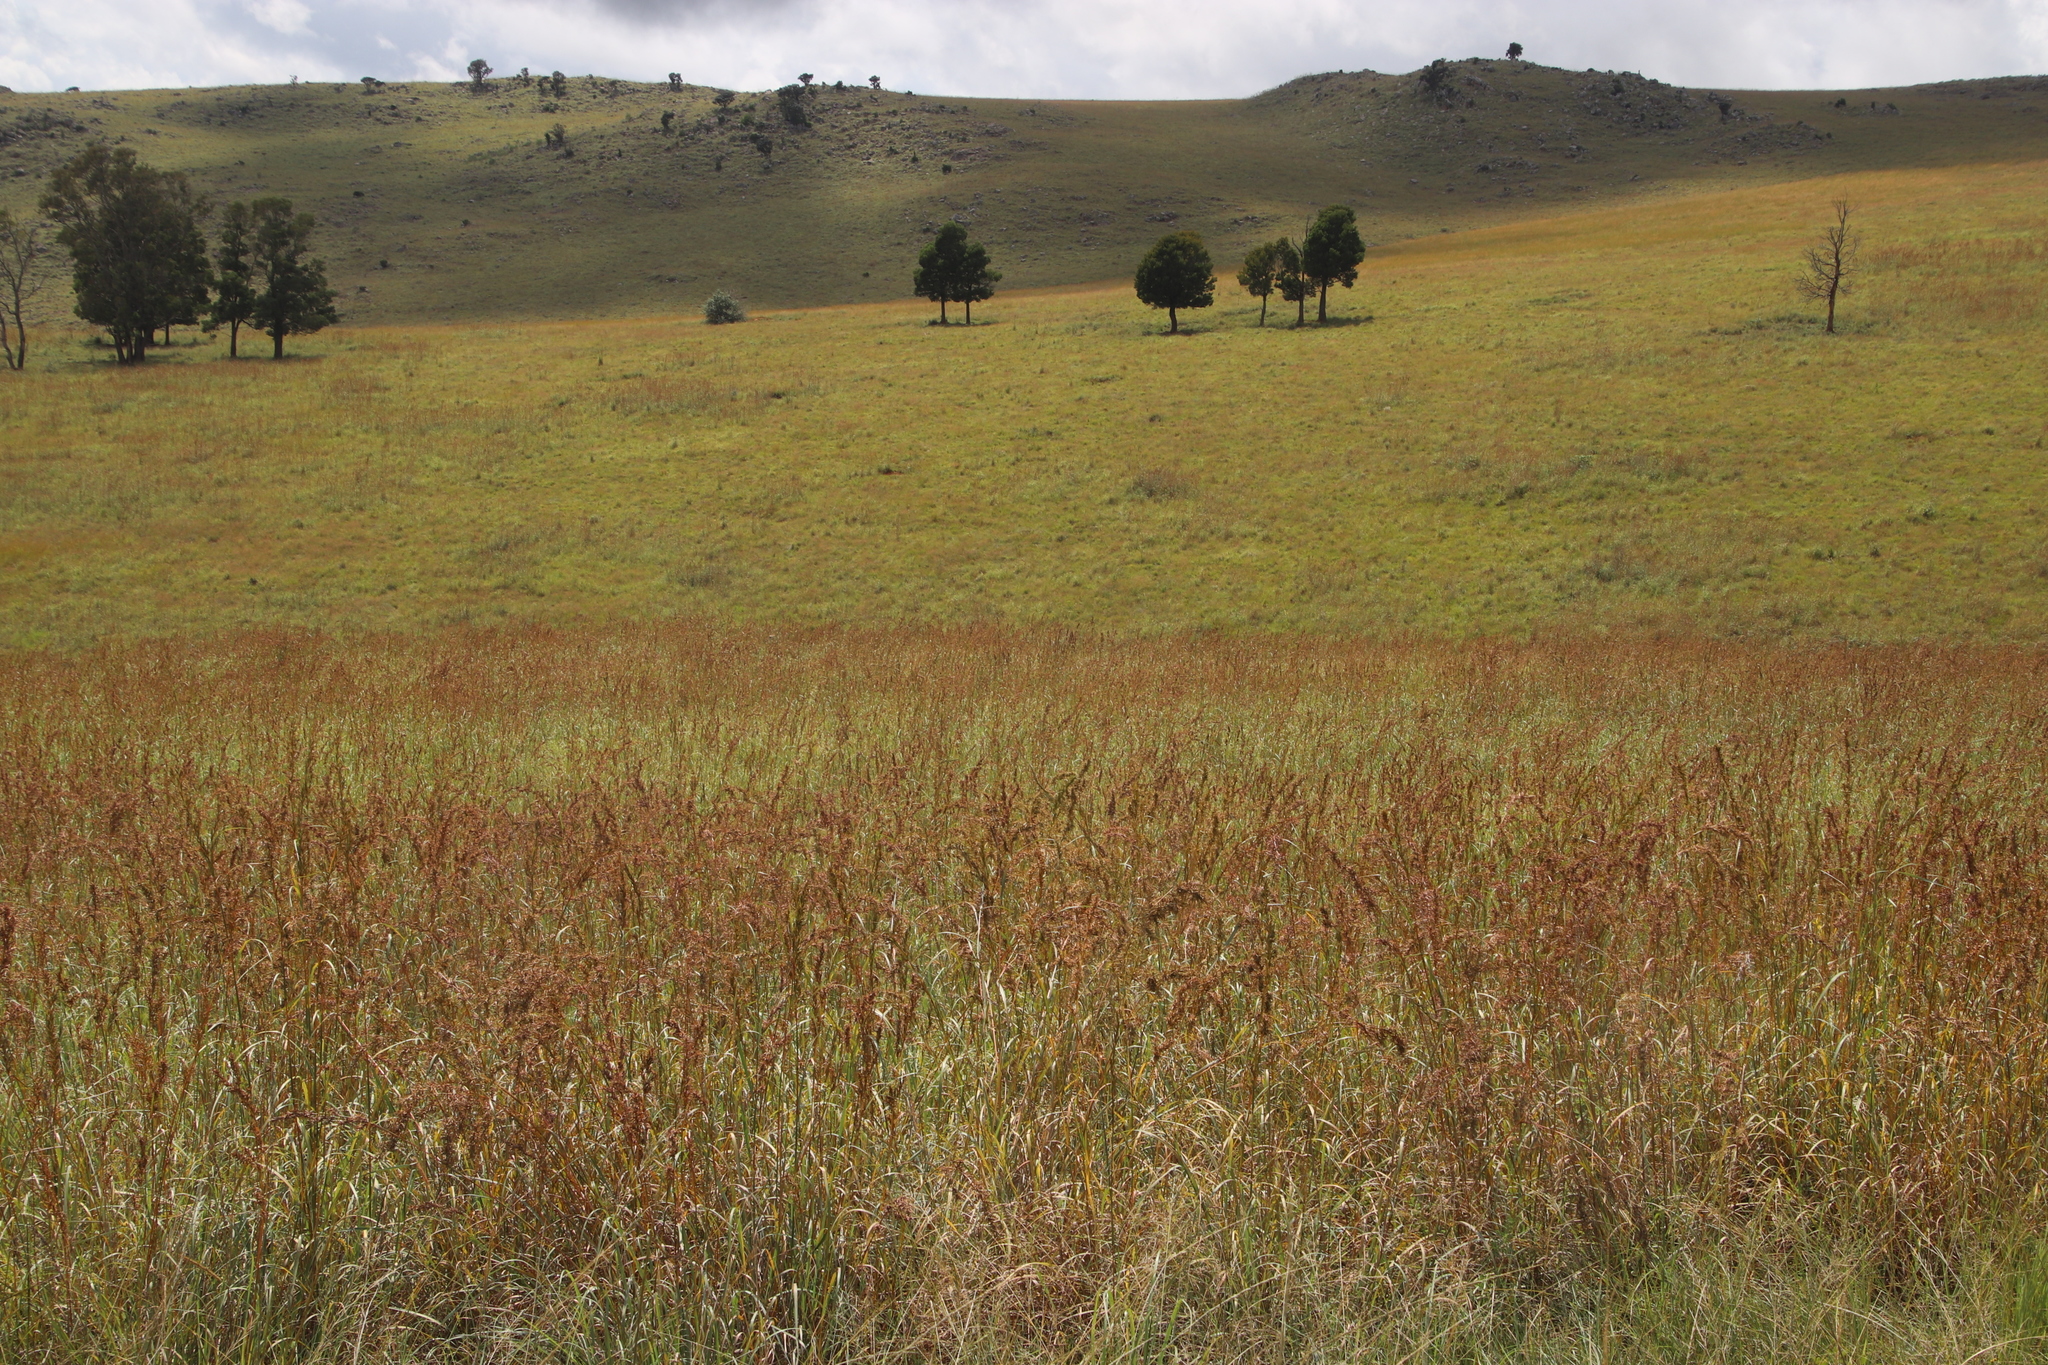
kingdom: Plantae
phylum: Tracheophyta
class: Magnoliopsida
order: Fabales
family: Fabaceae
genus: Acacia
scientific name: Acacia melanoxylon
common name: Blackwood
